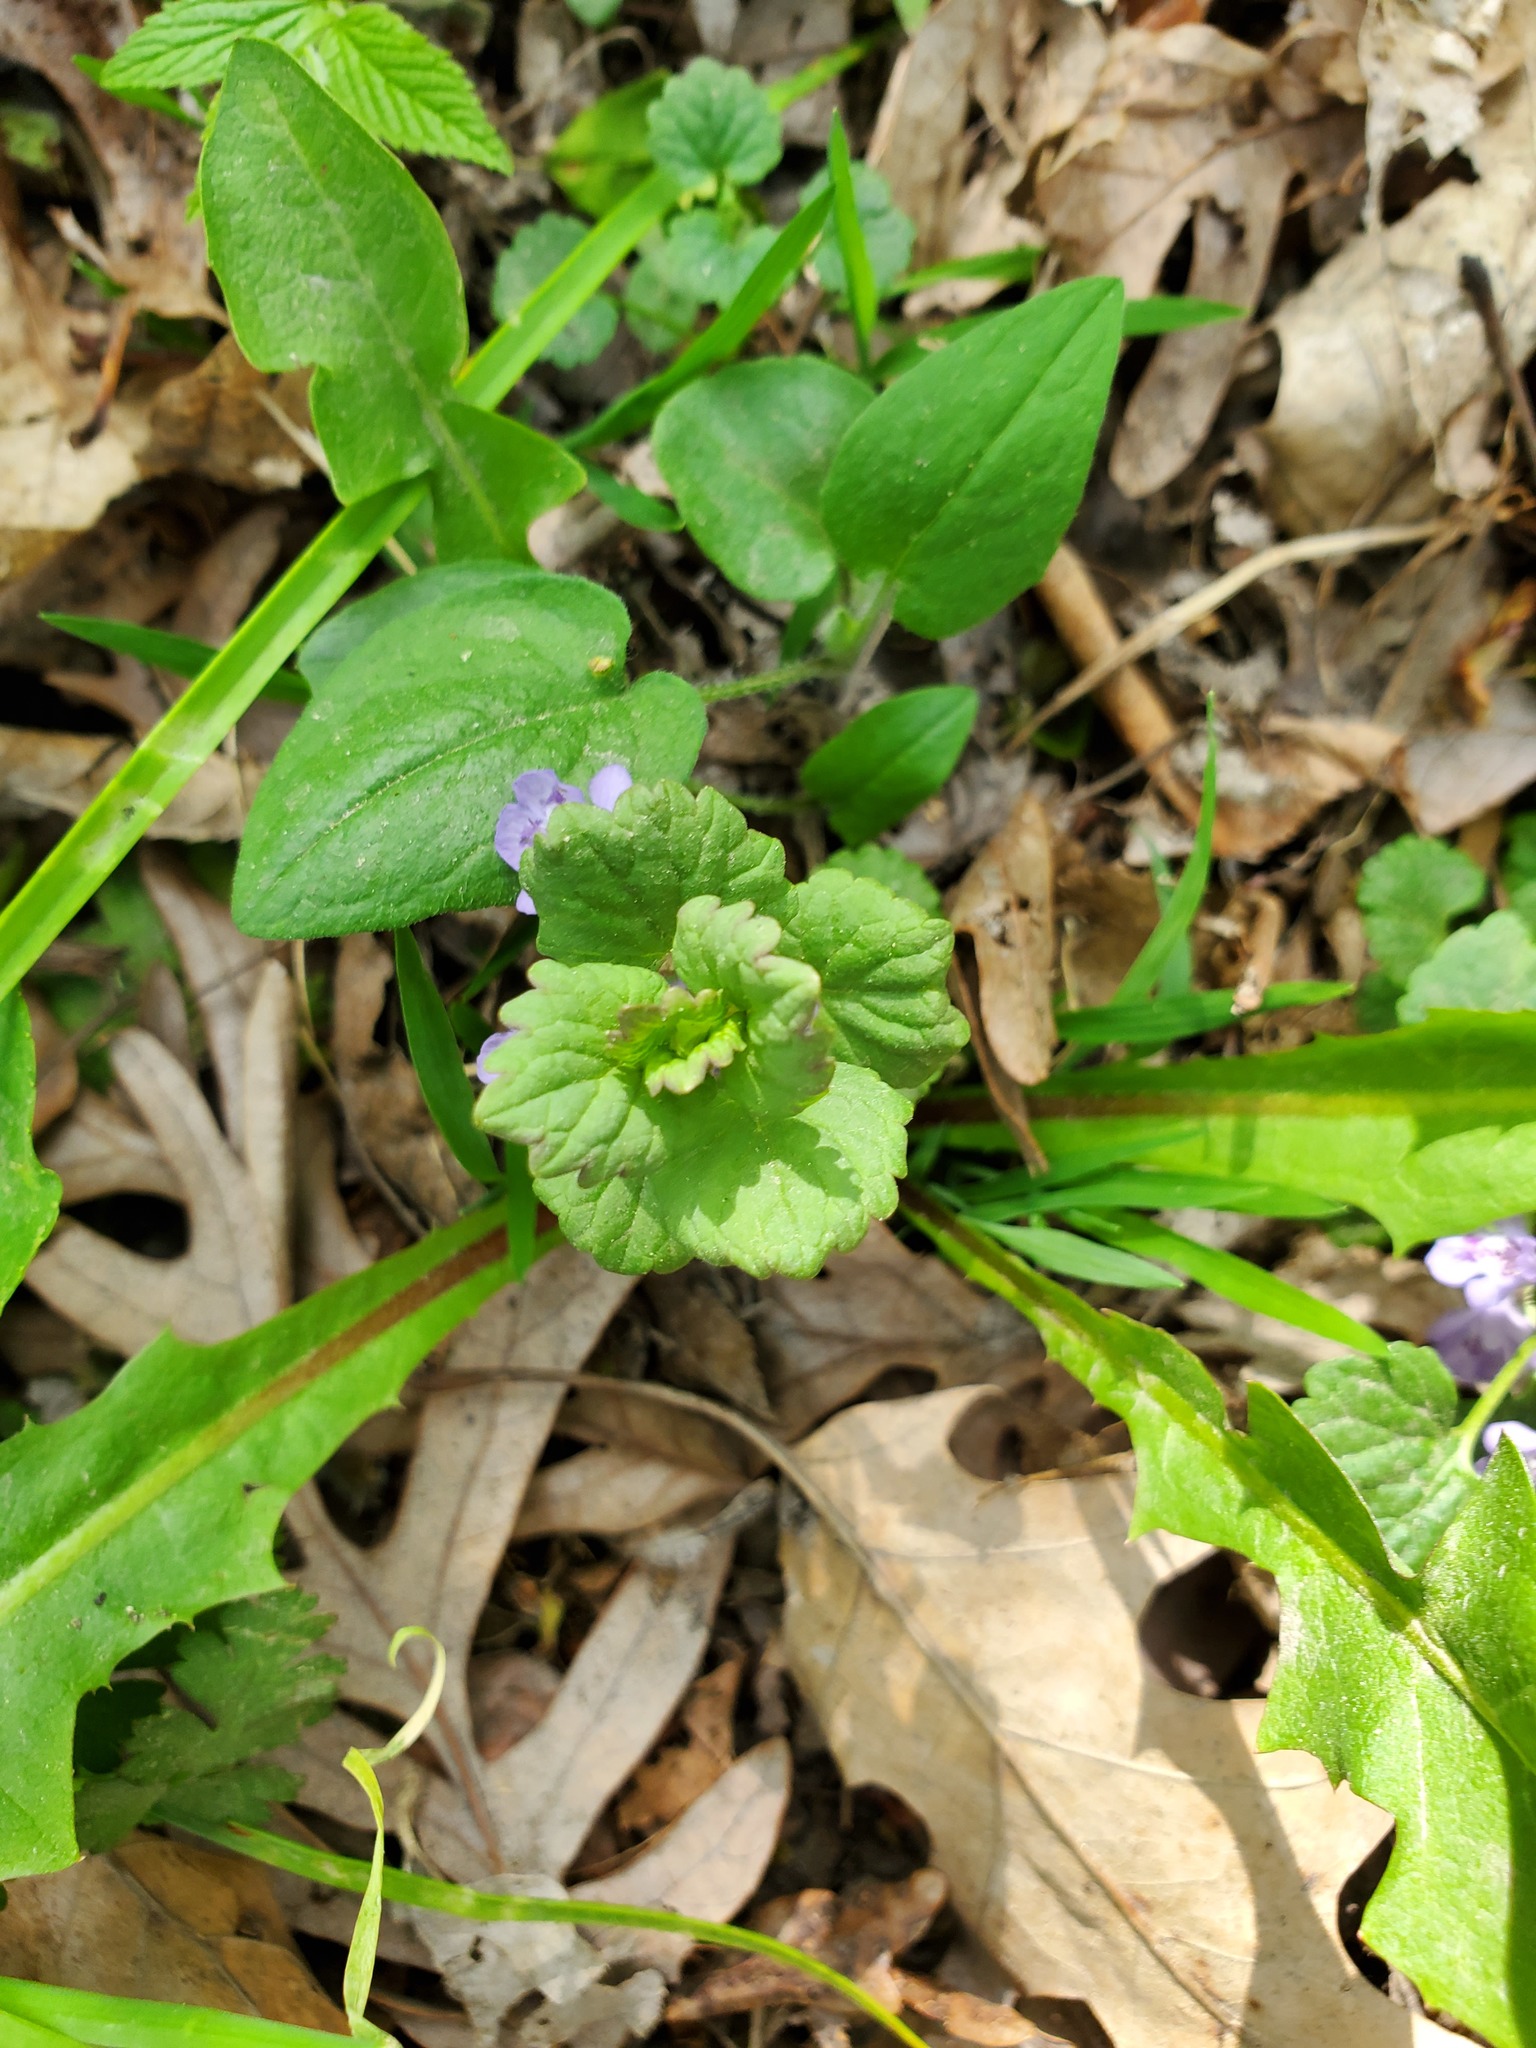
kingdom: Plantae
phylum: Tracheophyta
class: Magnoliopsida
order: Lamiales
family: Lamiaceae
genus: Glechoma
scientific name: Glechoma hederacea
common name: Ground ivy
